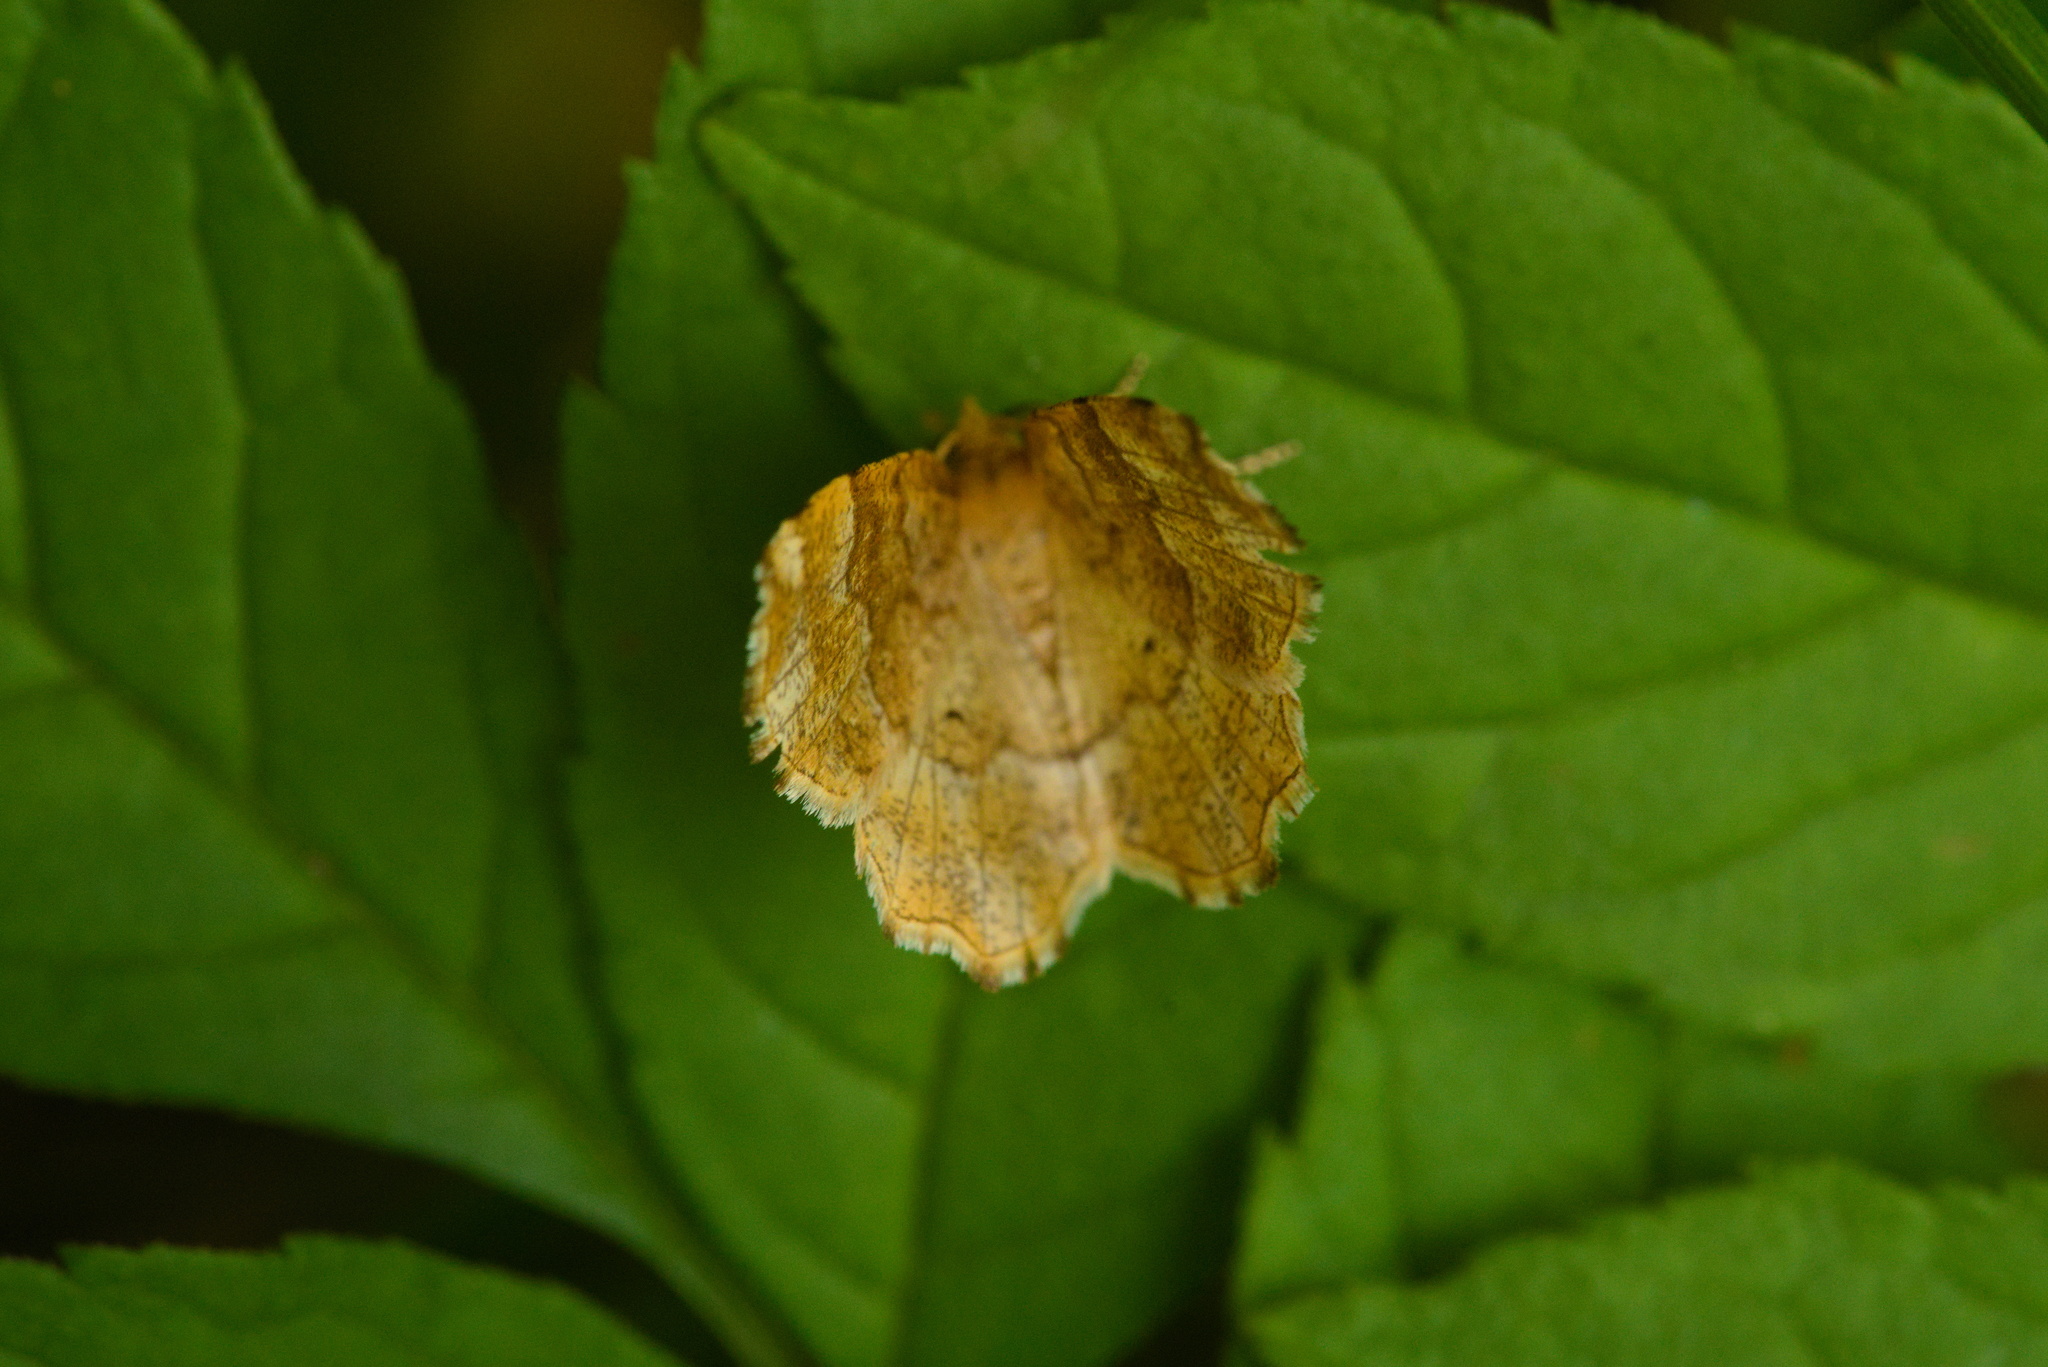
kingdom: Animalia
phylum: Arthropoda
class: Insecta
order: Lepidoptera
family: Geometridae
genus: Cepphis
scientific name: Cepphis advenaria
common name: Little thorn
